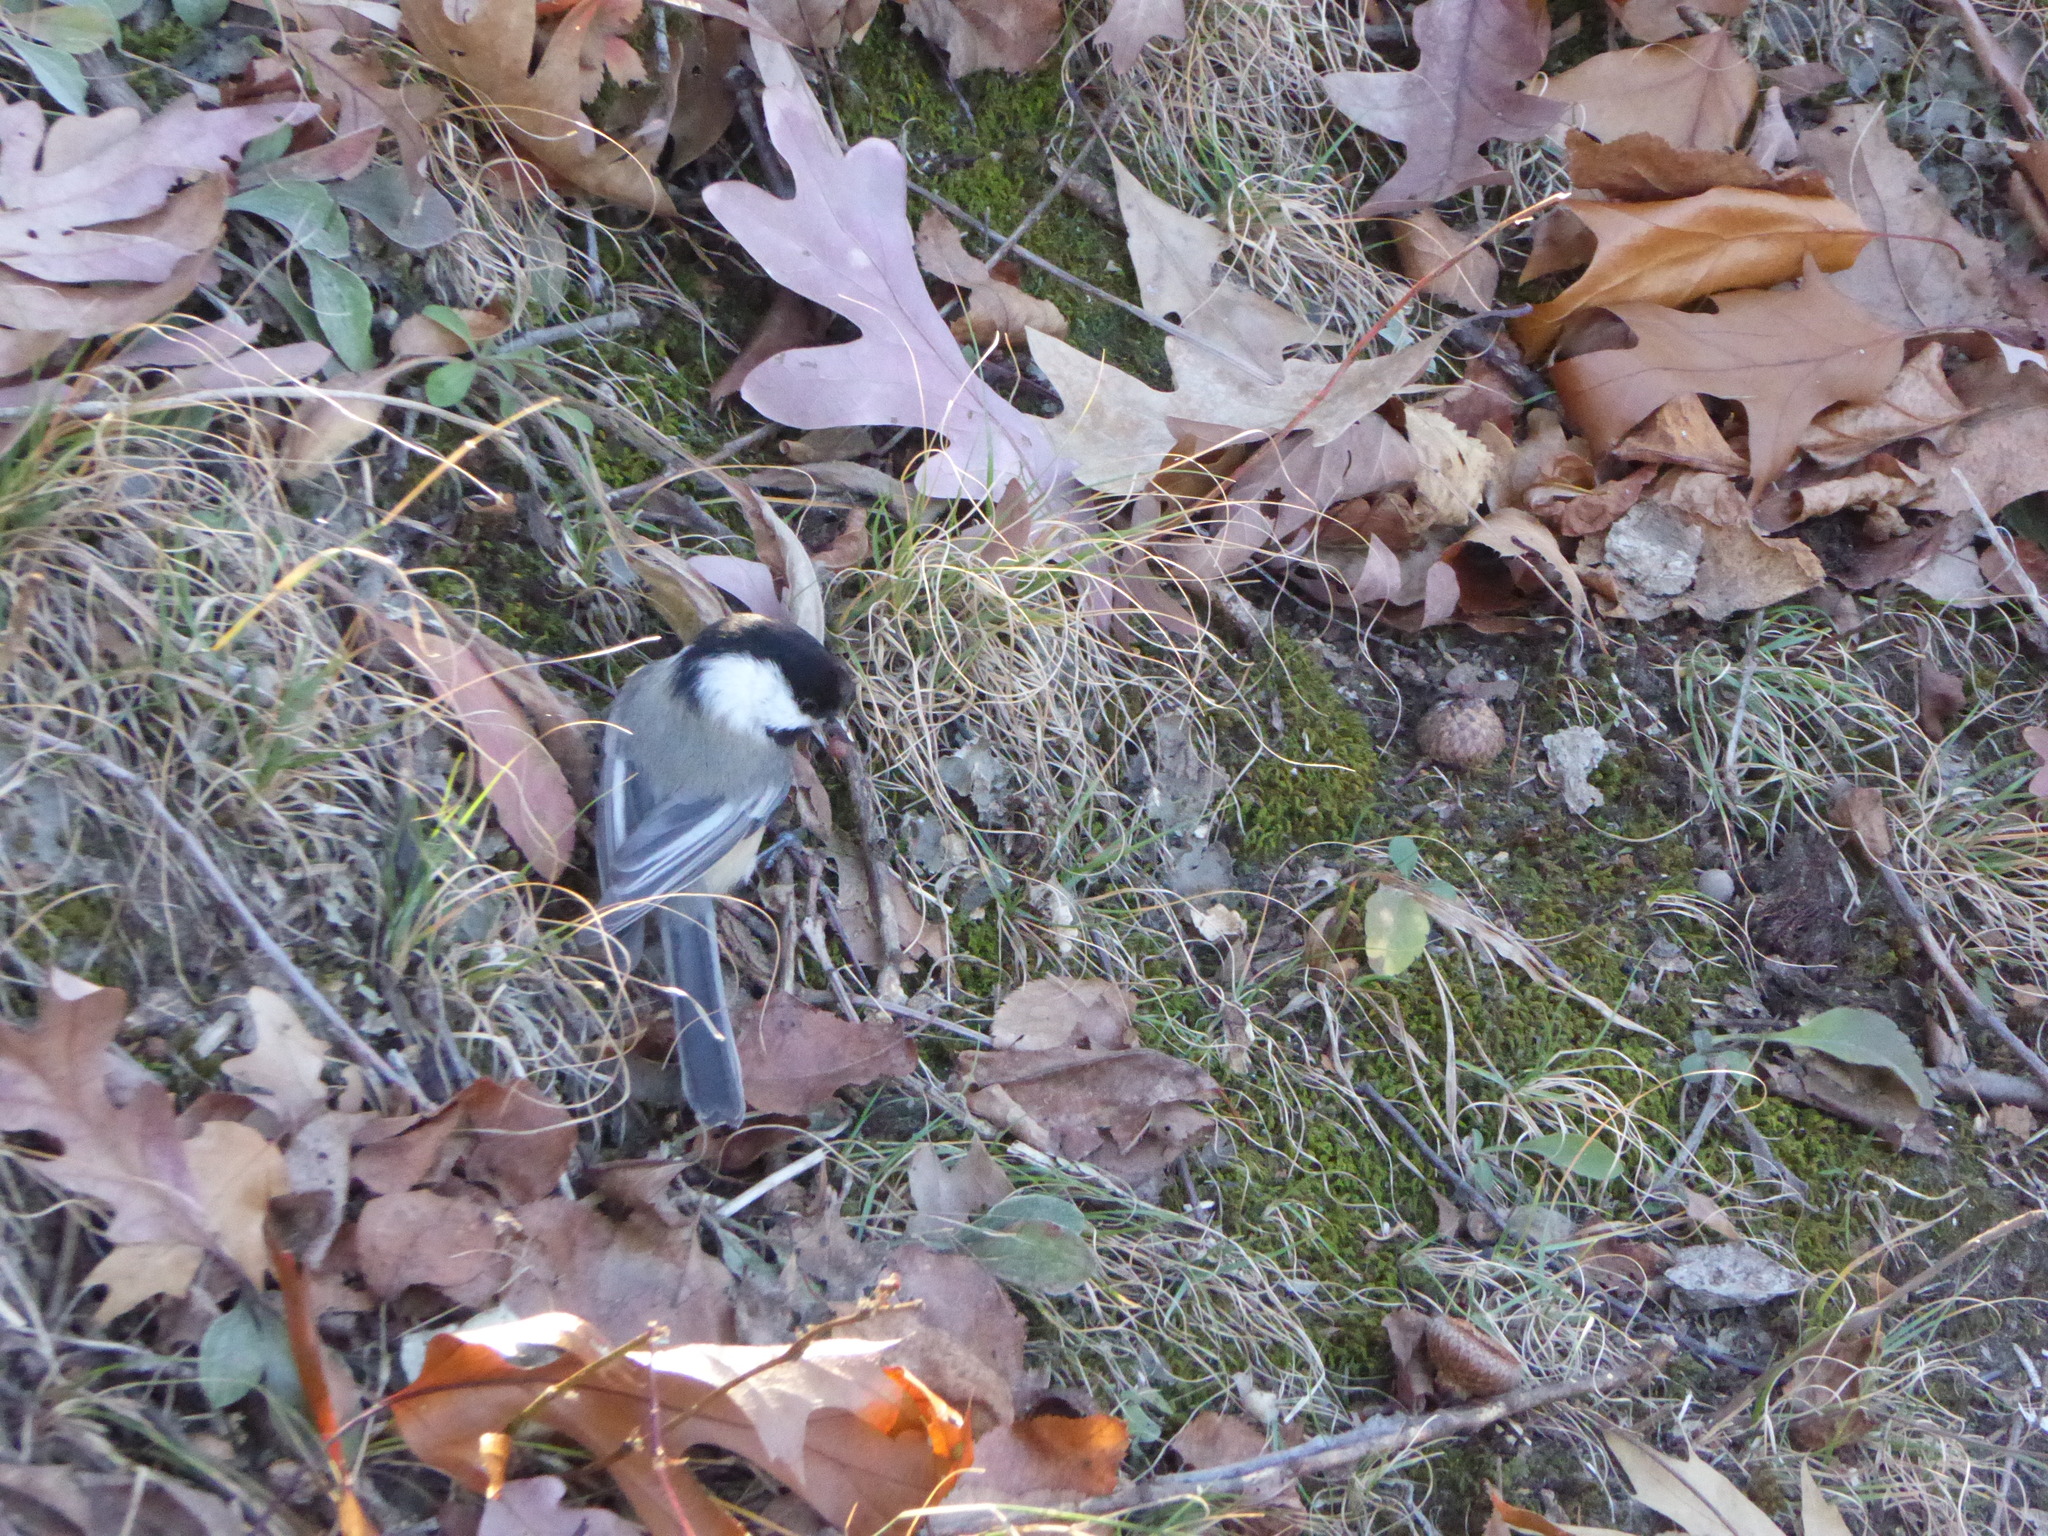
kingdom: Animalia
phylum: Chordata
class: Aves
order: Passeriformes
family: Paridae
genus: Poecile
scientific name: Poecile atricapillus
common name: Black-capped chickadee
